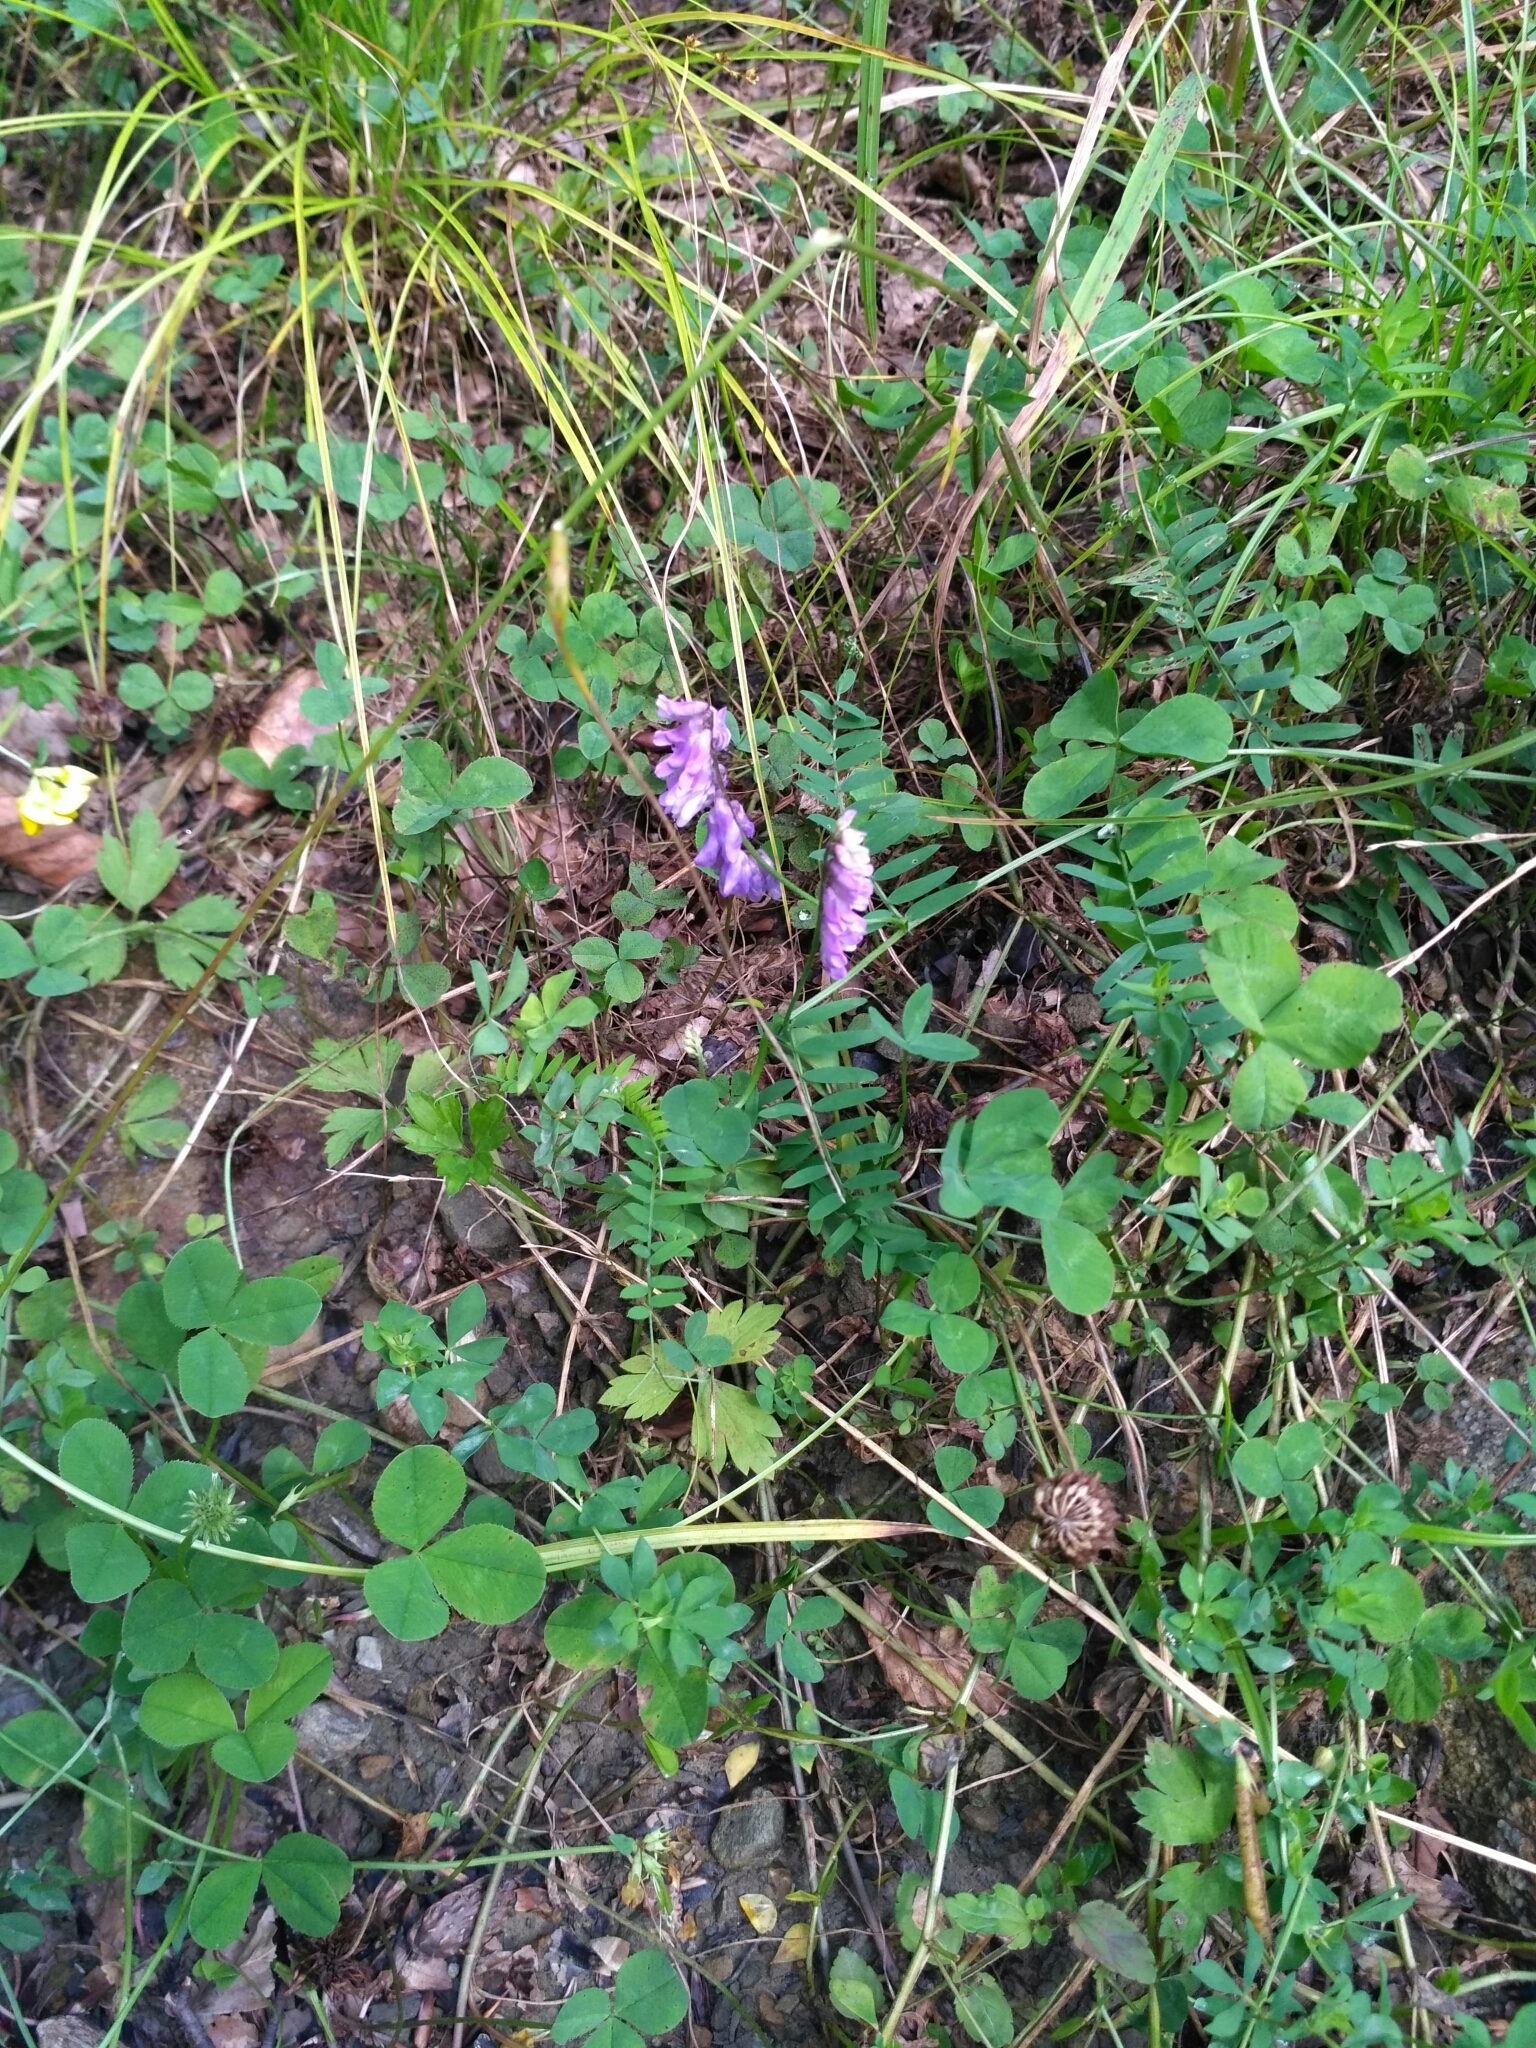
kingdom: Plantae
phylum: Tracheophyta
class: Magnoliopsida
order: Fabales
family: Fabaceae
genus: Vicia
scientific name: Vicia cracca
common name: Bird vetch
